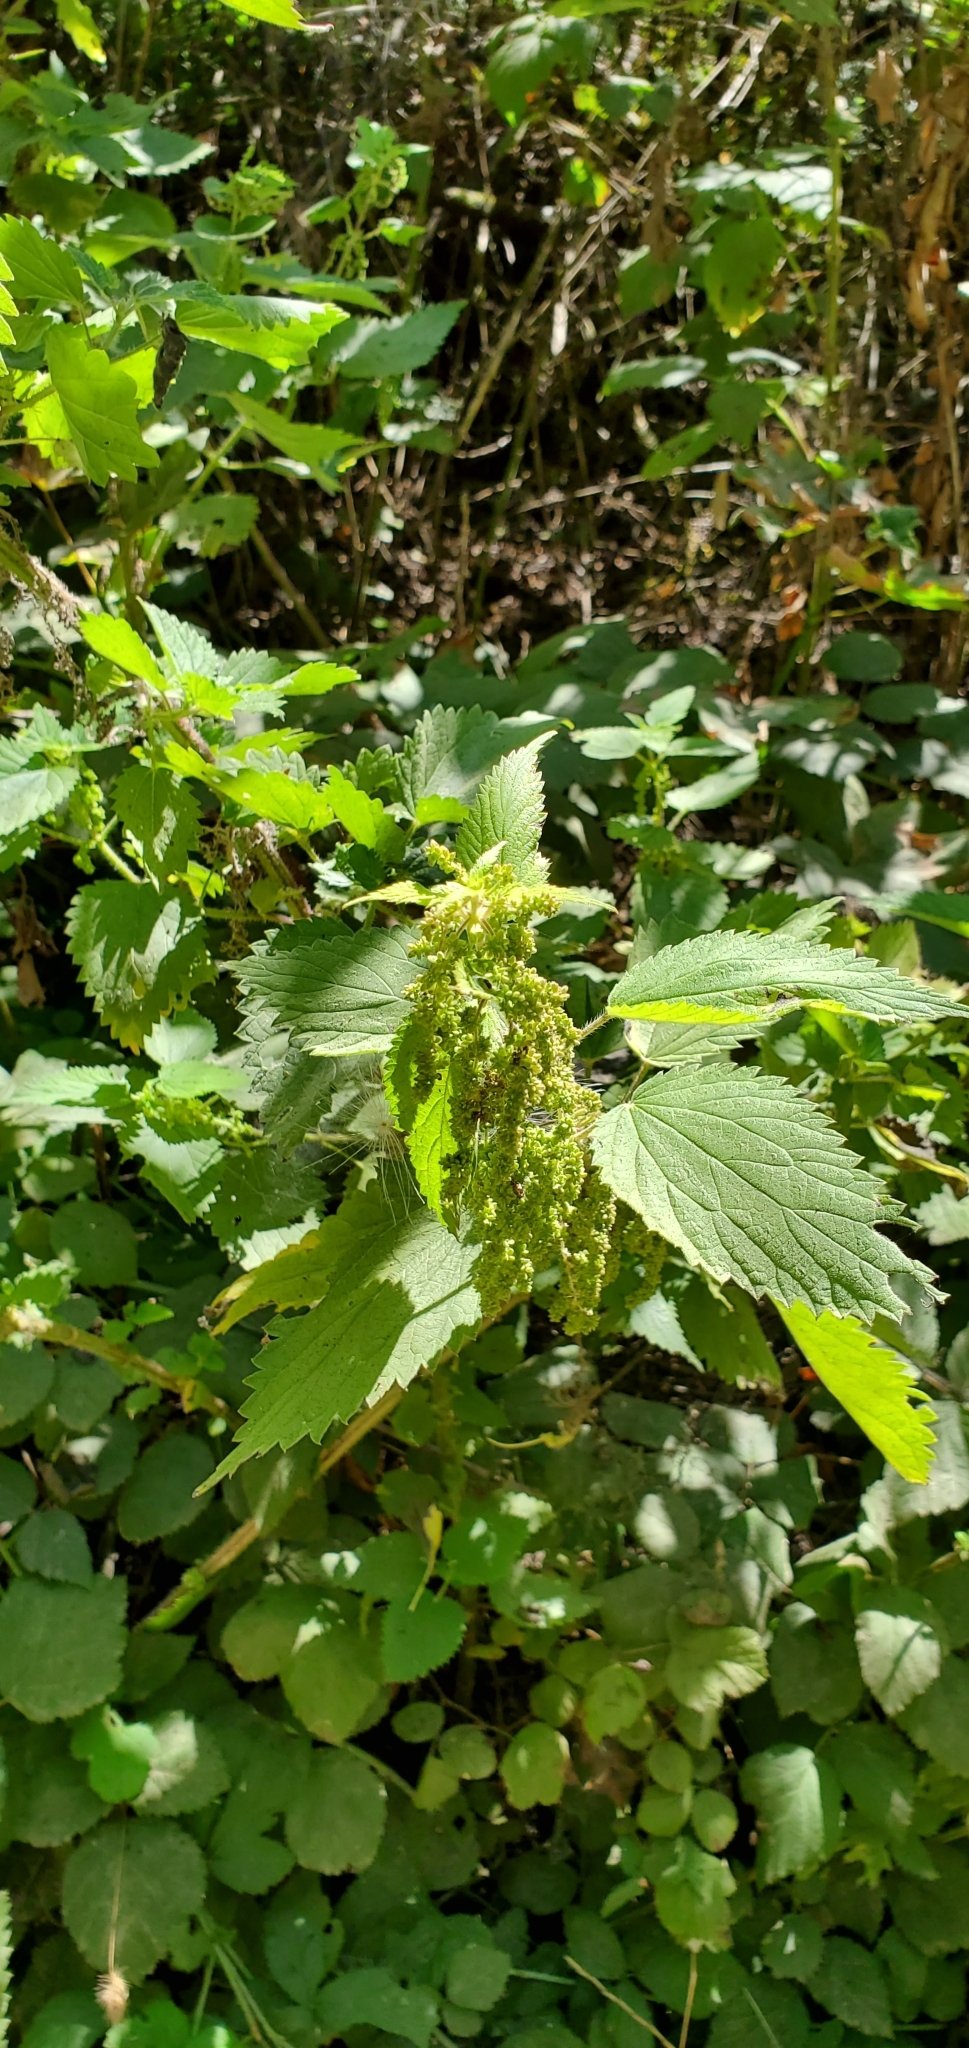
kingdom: Plantae
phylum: Tracheophyta
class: Magnoliopsida
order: Rosales
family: Urticaceae
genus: Urtica
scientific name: Urtica dioica
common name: Common nettle
